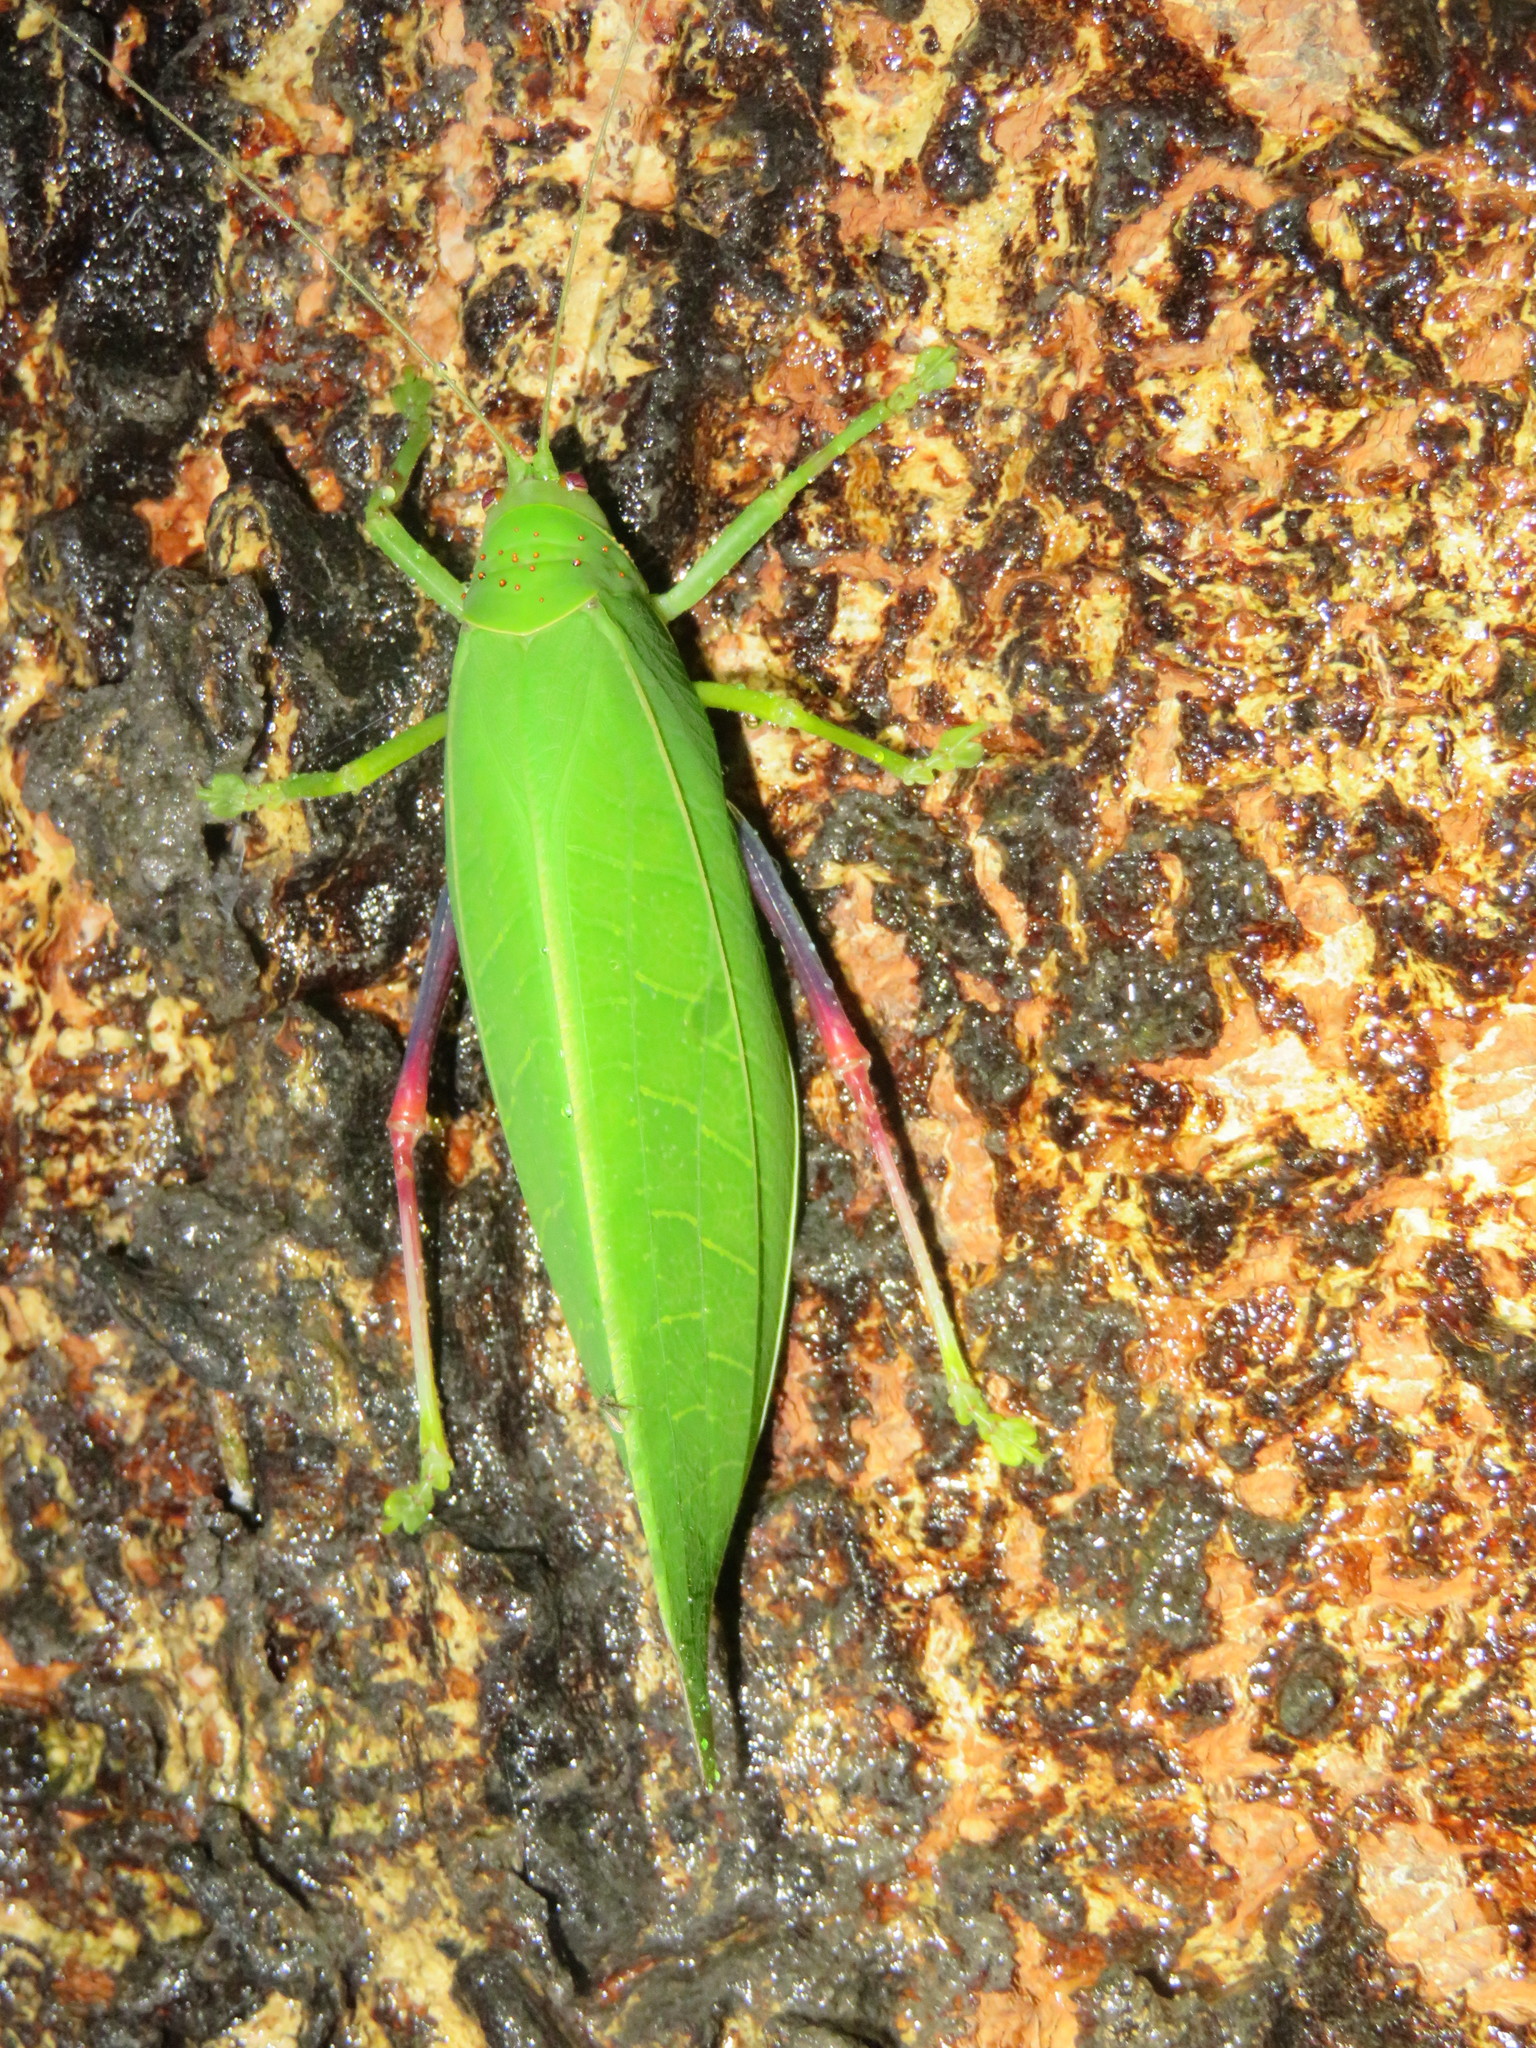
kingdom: Animalia
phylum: Arthropoda
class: Insecta
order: Orthoptera
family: Tettigoniidae
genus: Zabalius
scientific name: Zabalius ophthalmicus
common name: Blue-legged sylvan katydid
